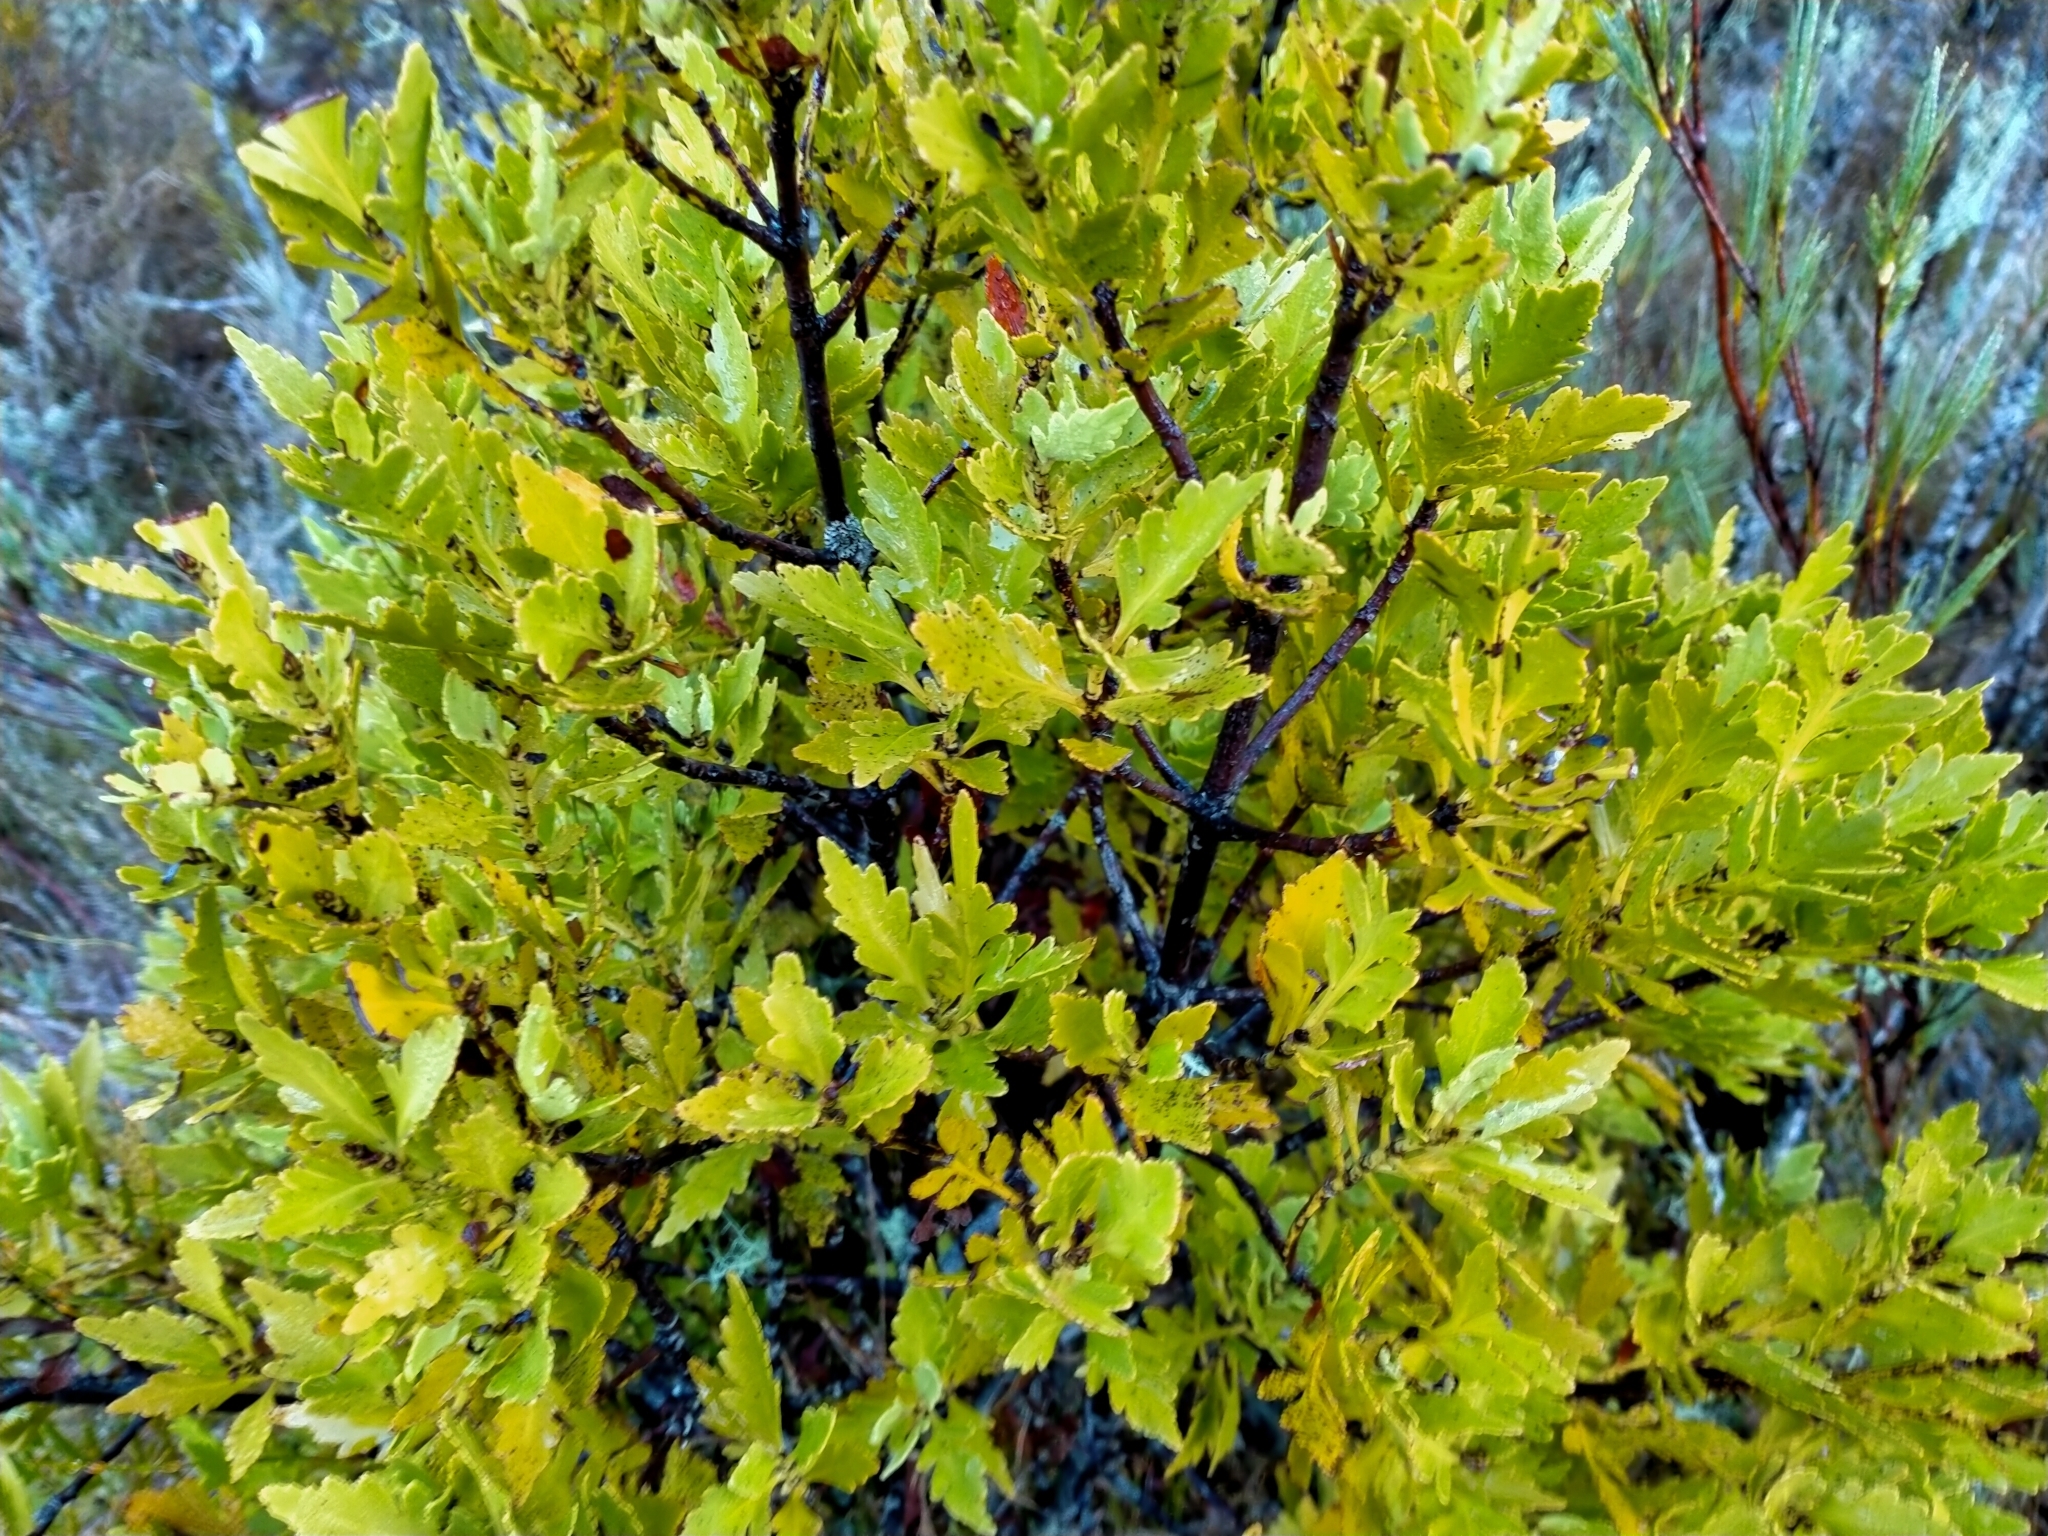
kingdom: Plantae
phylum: Tracheophyta
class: Pinopsida
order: Pinales
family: Phyllocladaceae
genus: Phyllocladus
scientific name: Phyllocladus trichomanoides
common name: Celery pine
